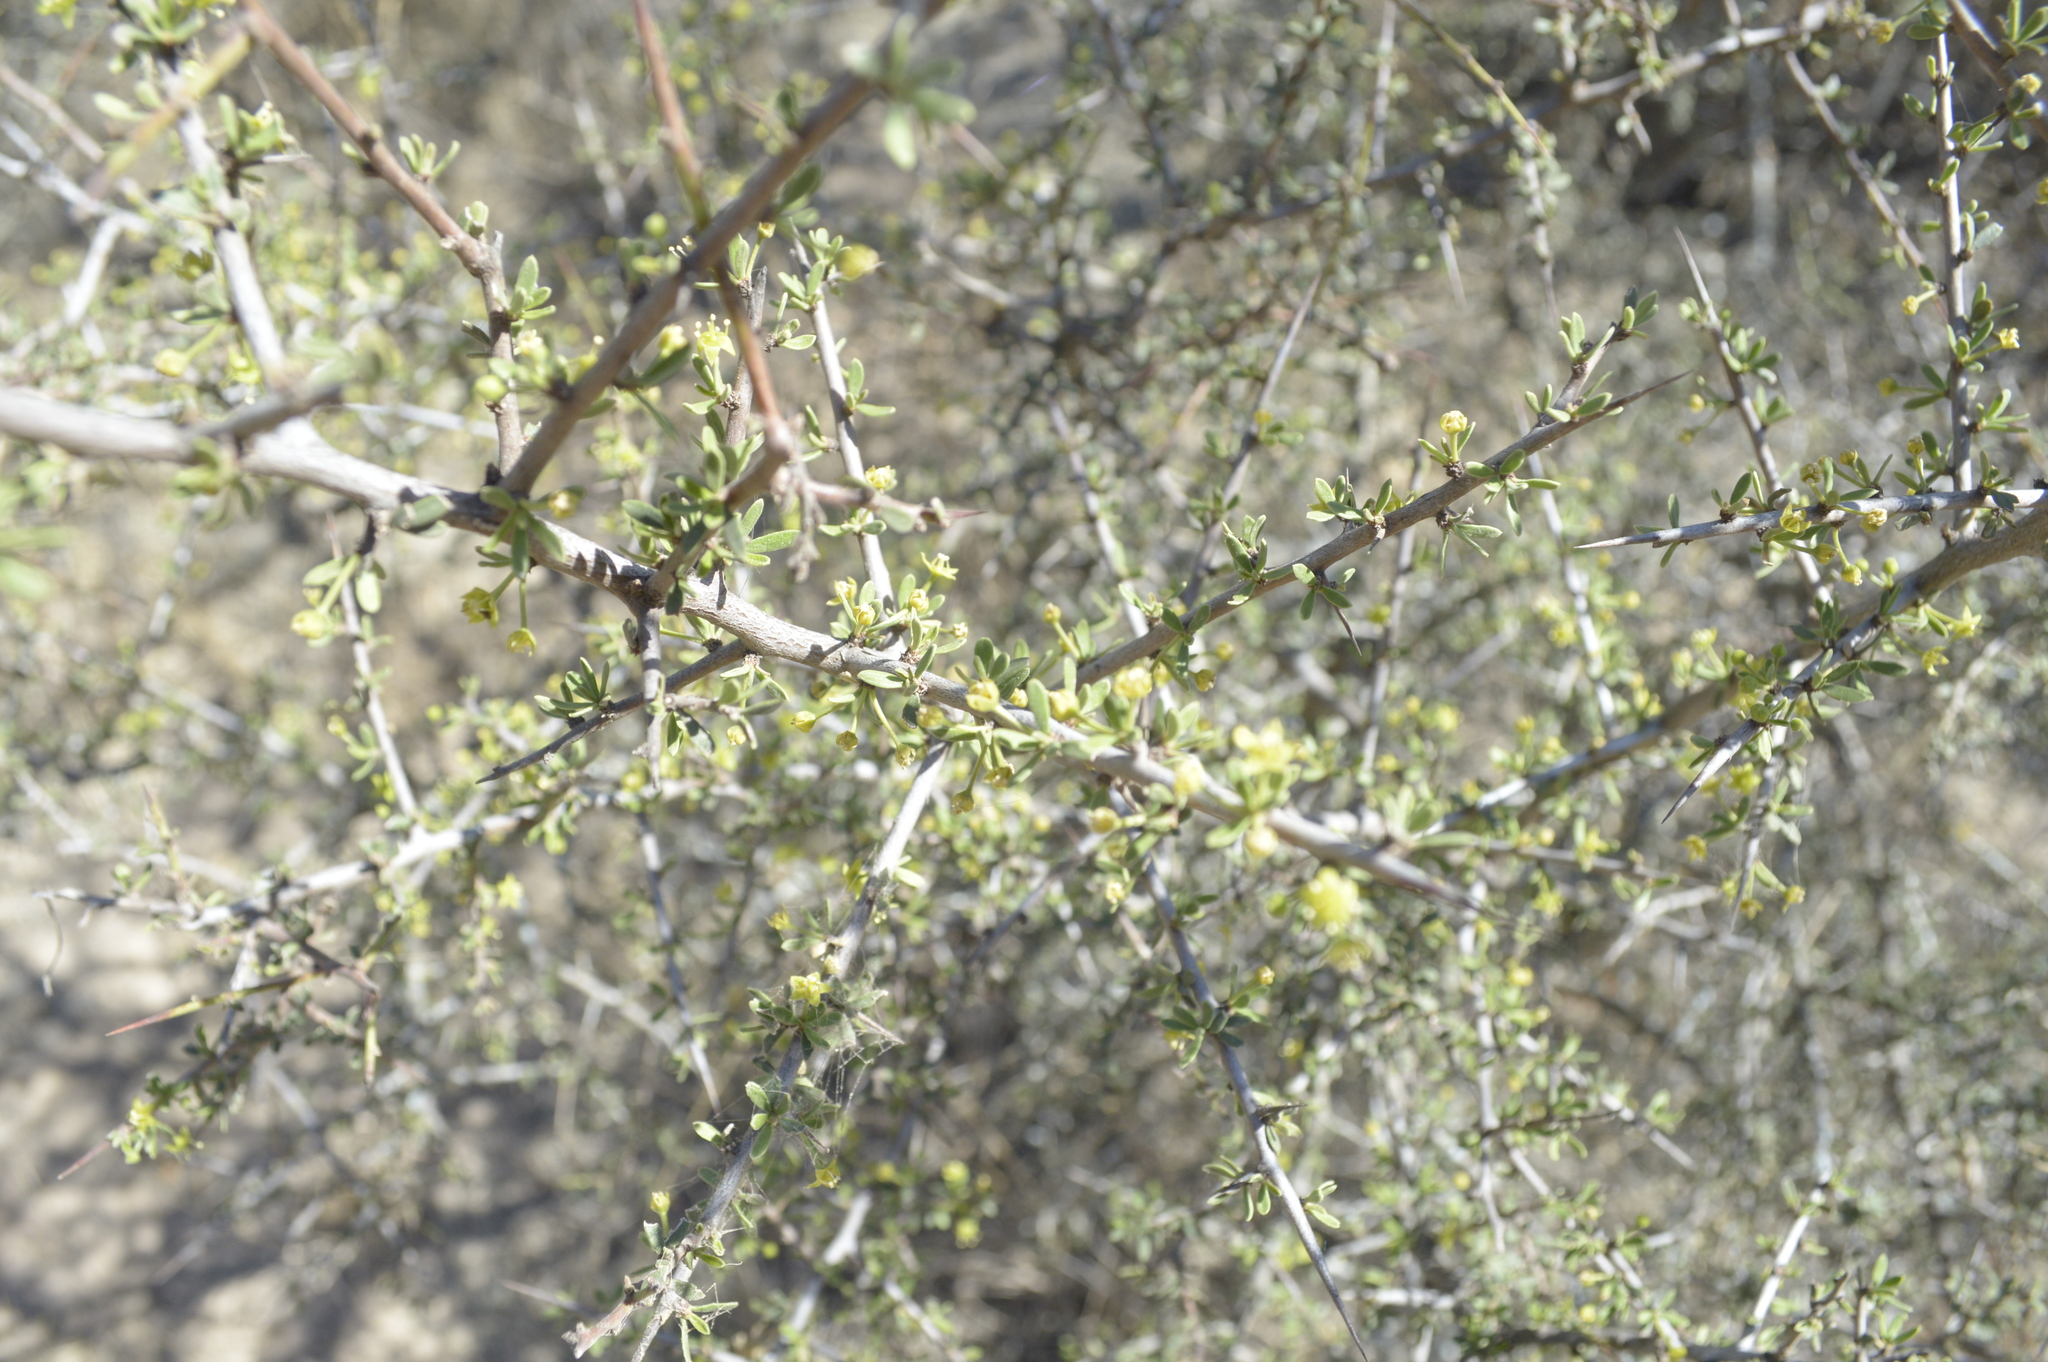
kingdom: Plantae
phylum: Tracheophyta
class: Magnoliopsida
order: Rosales
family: Rhamnaceae
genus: Condalia
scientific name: Condalia microphylla
